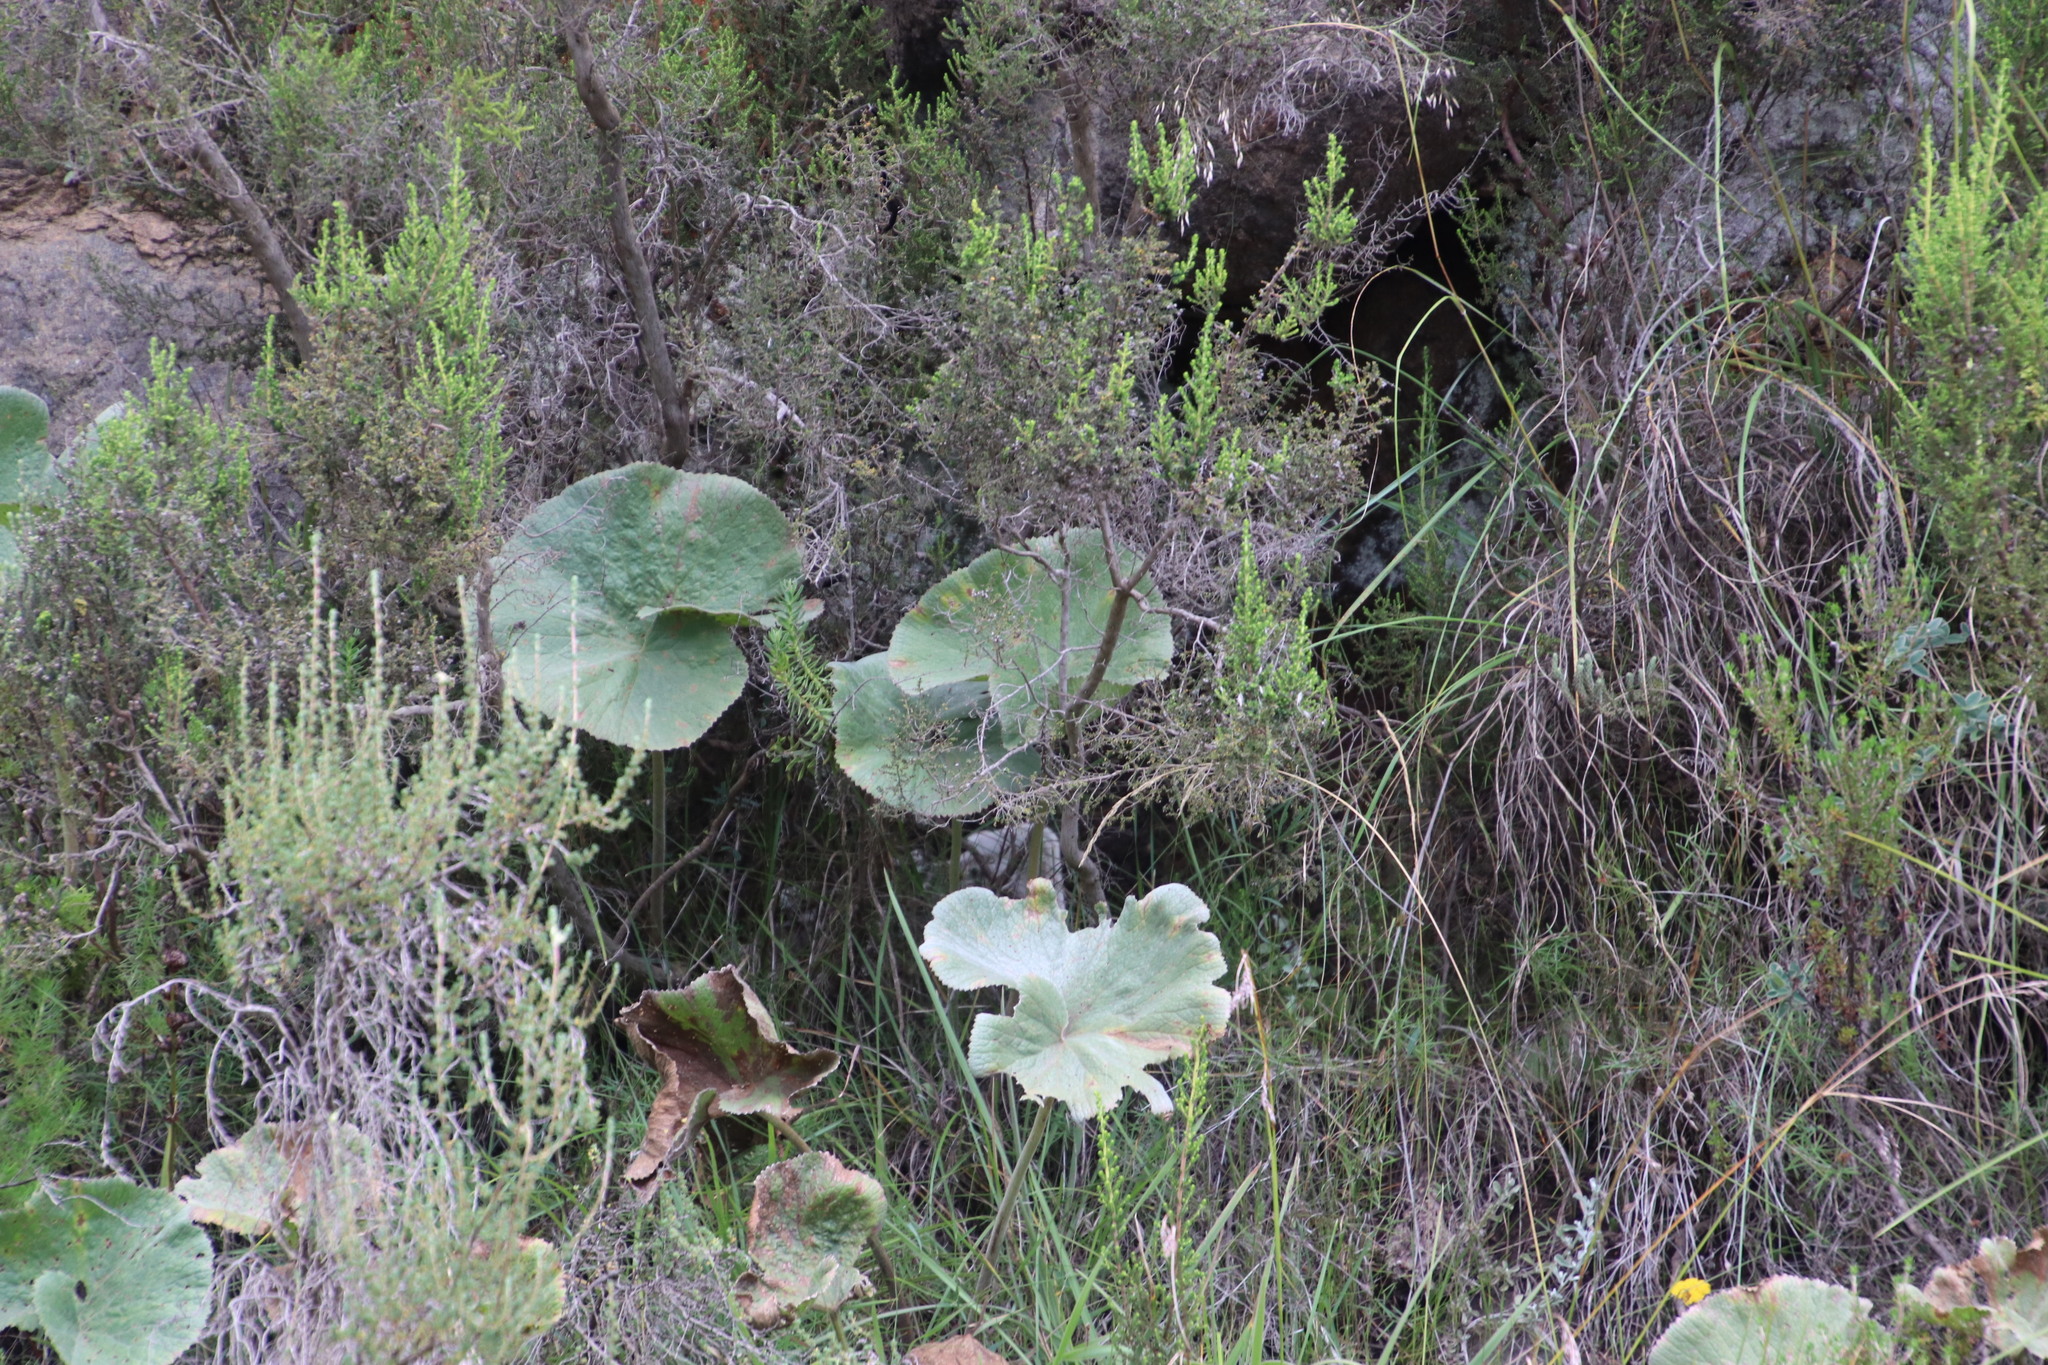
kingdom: Plantae
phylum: Tracheophyta
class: Magnoliopsida
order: Gunnerales
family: Gunneraceae
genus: Gunnera
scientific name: Gunnera perpensa
